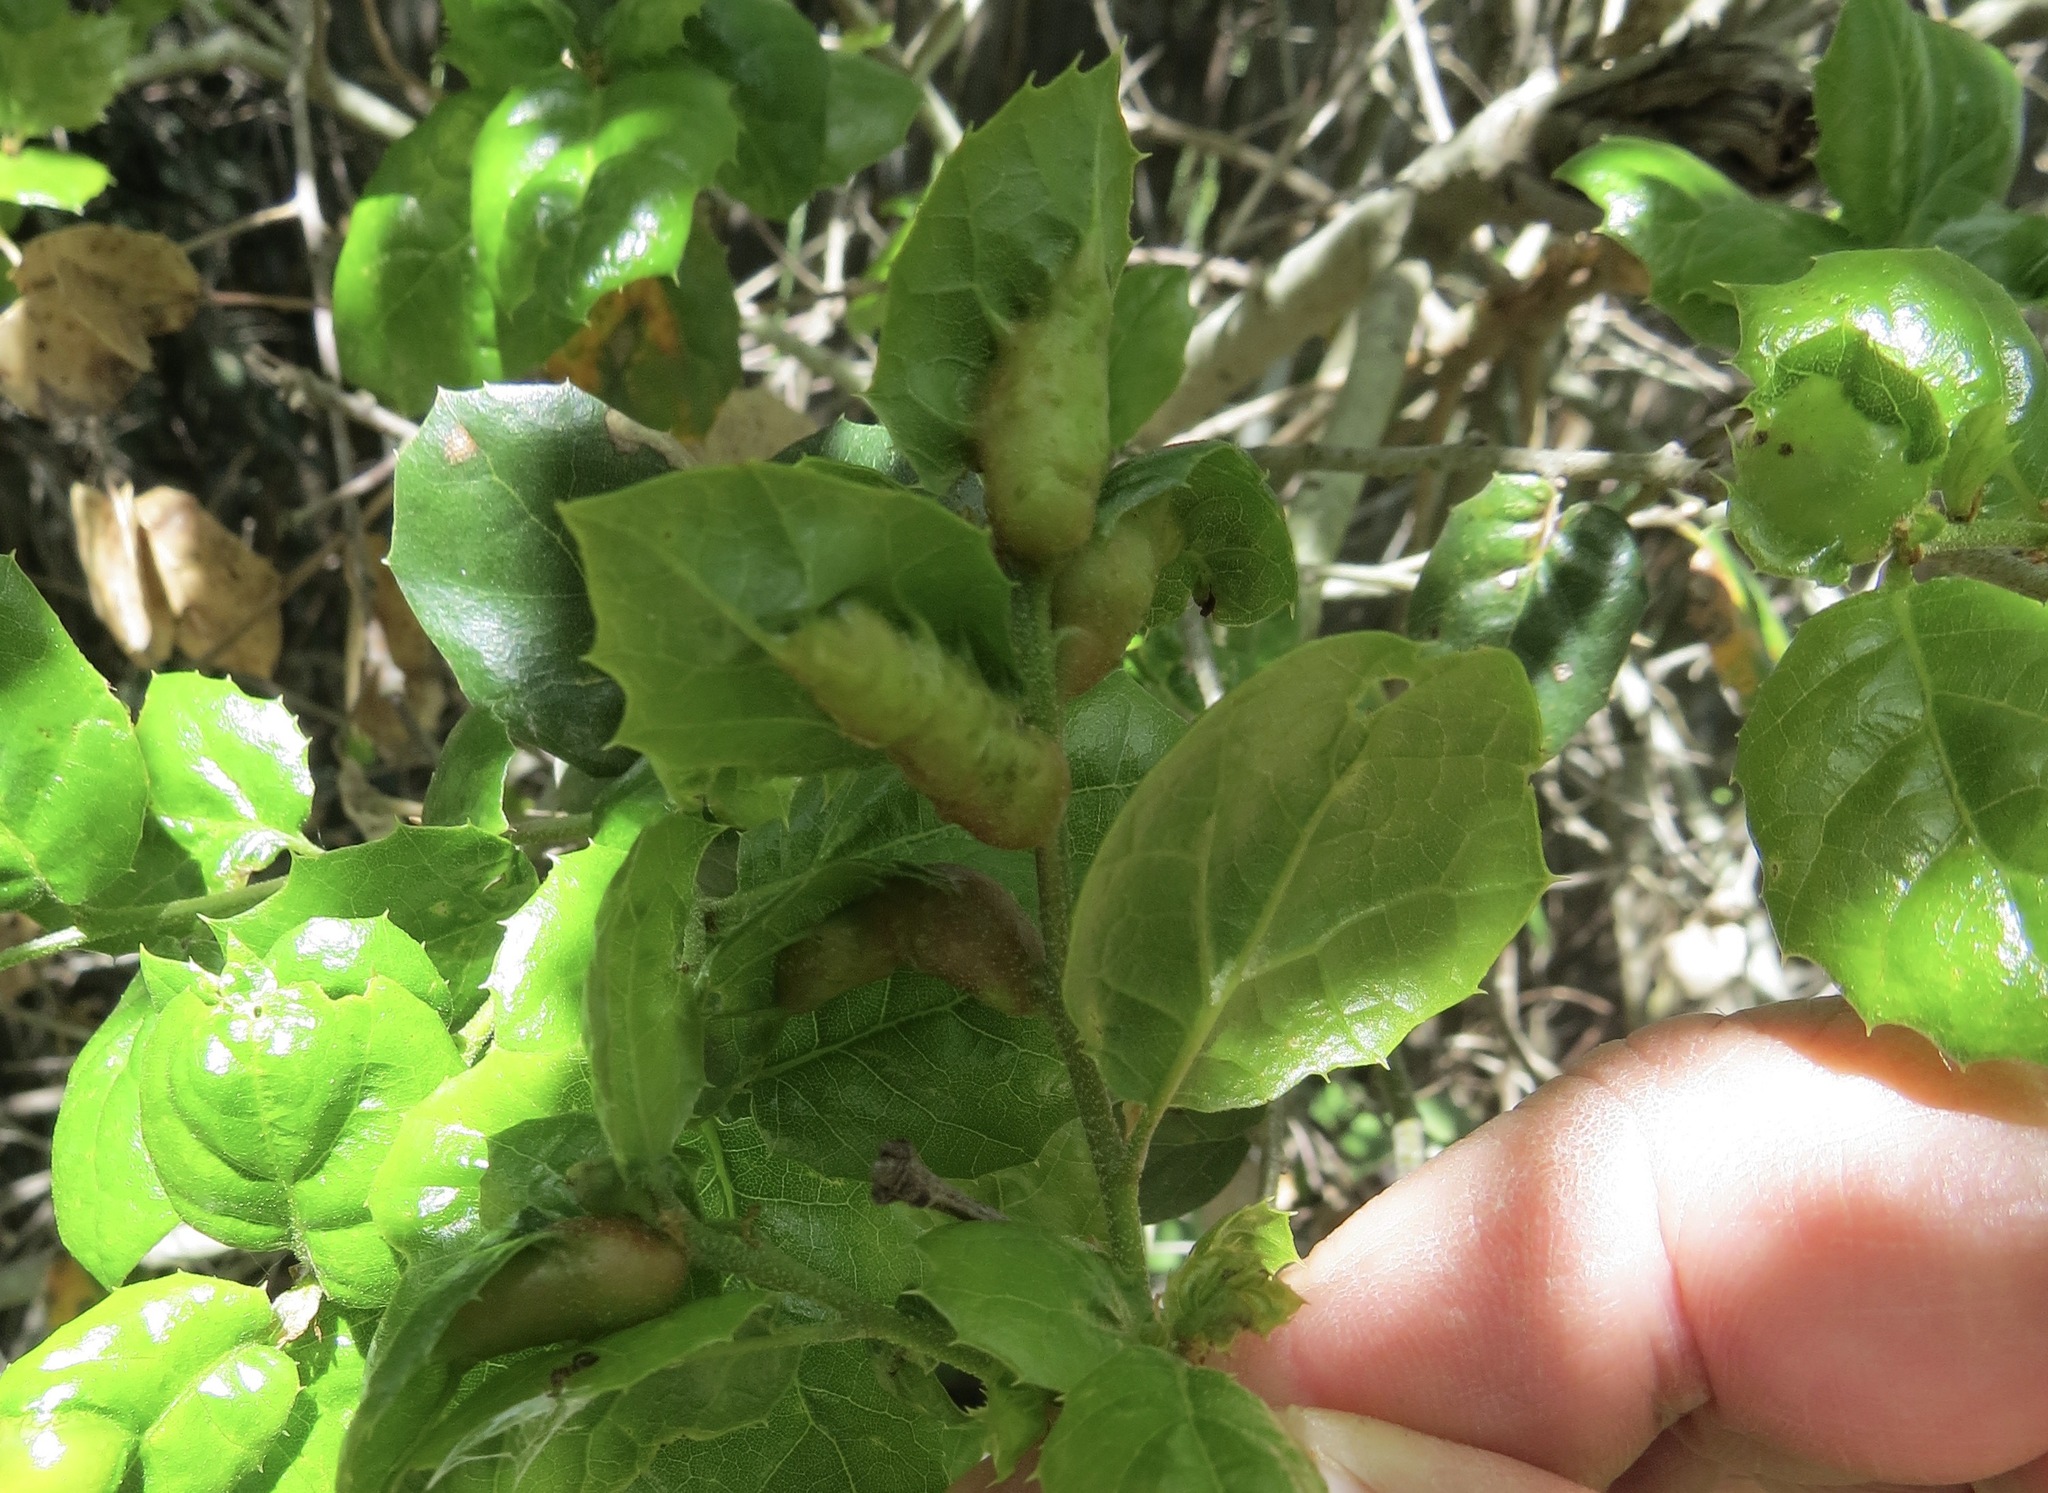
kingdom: Animalia
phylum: Arthropoda
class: Insecta
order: Hymenoptera
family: Cynipidae
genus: Melikaiella
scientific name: Melikaiella
